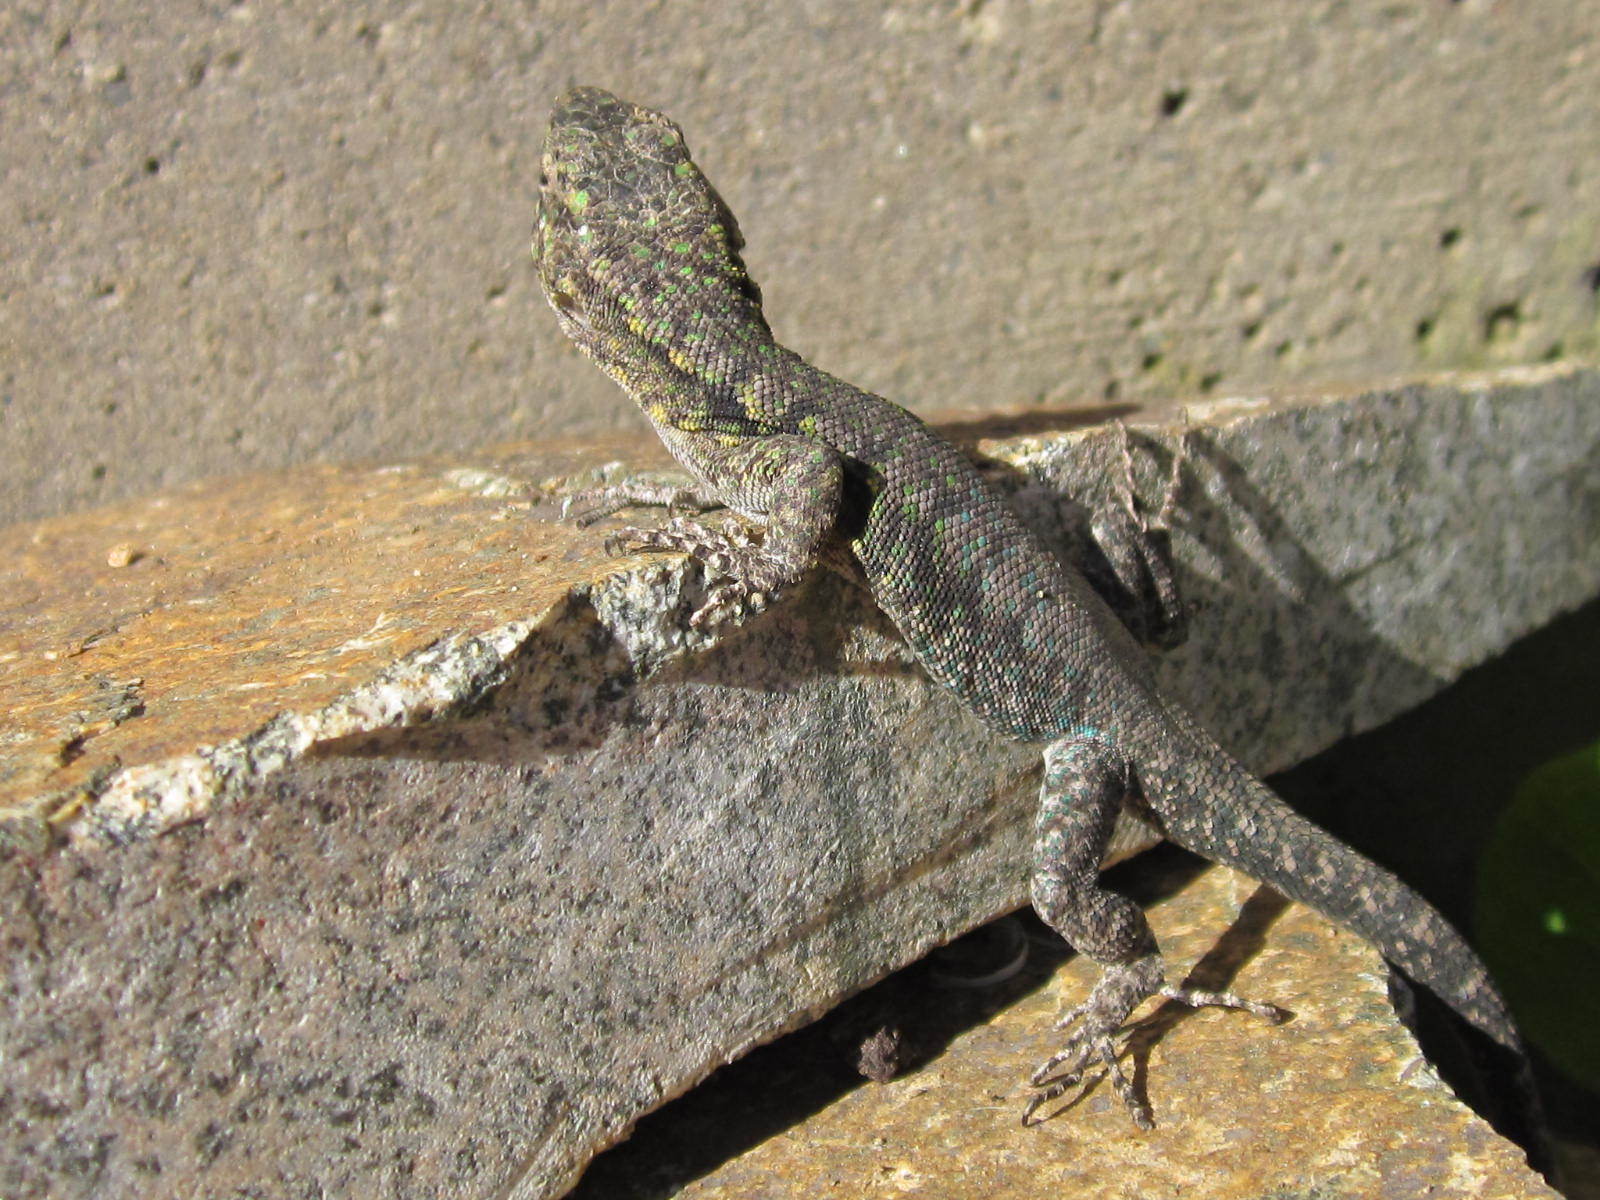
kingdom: Animalia
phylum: Chordata
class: Squamata
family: Liolaemidae
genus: Liolaemus
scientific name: Liolaemus tenuis
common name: Thin tree iguana
